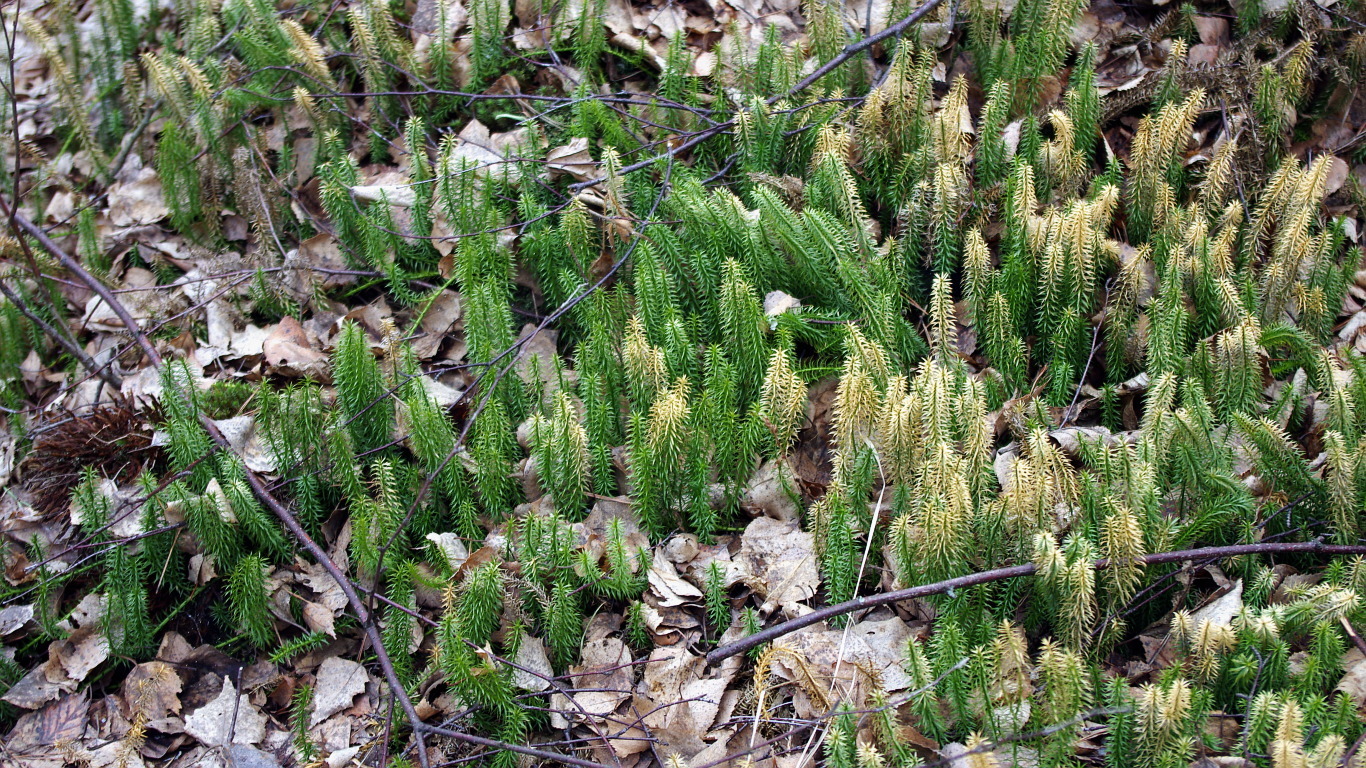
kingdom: Plantae
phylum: Tracheophyta
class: Lycopodiopsida
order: Lycopodiales
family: Lycopodiaceae
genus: Spinulum
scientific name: Spinulum annotinum
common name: Interrupted club-moss
